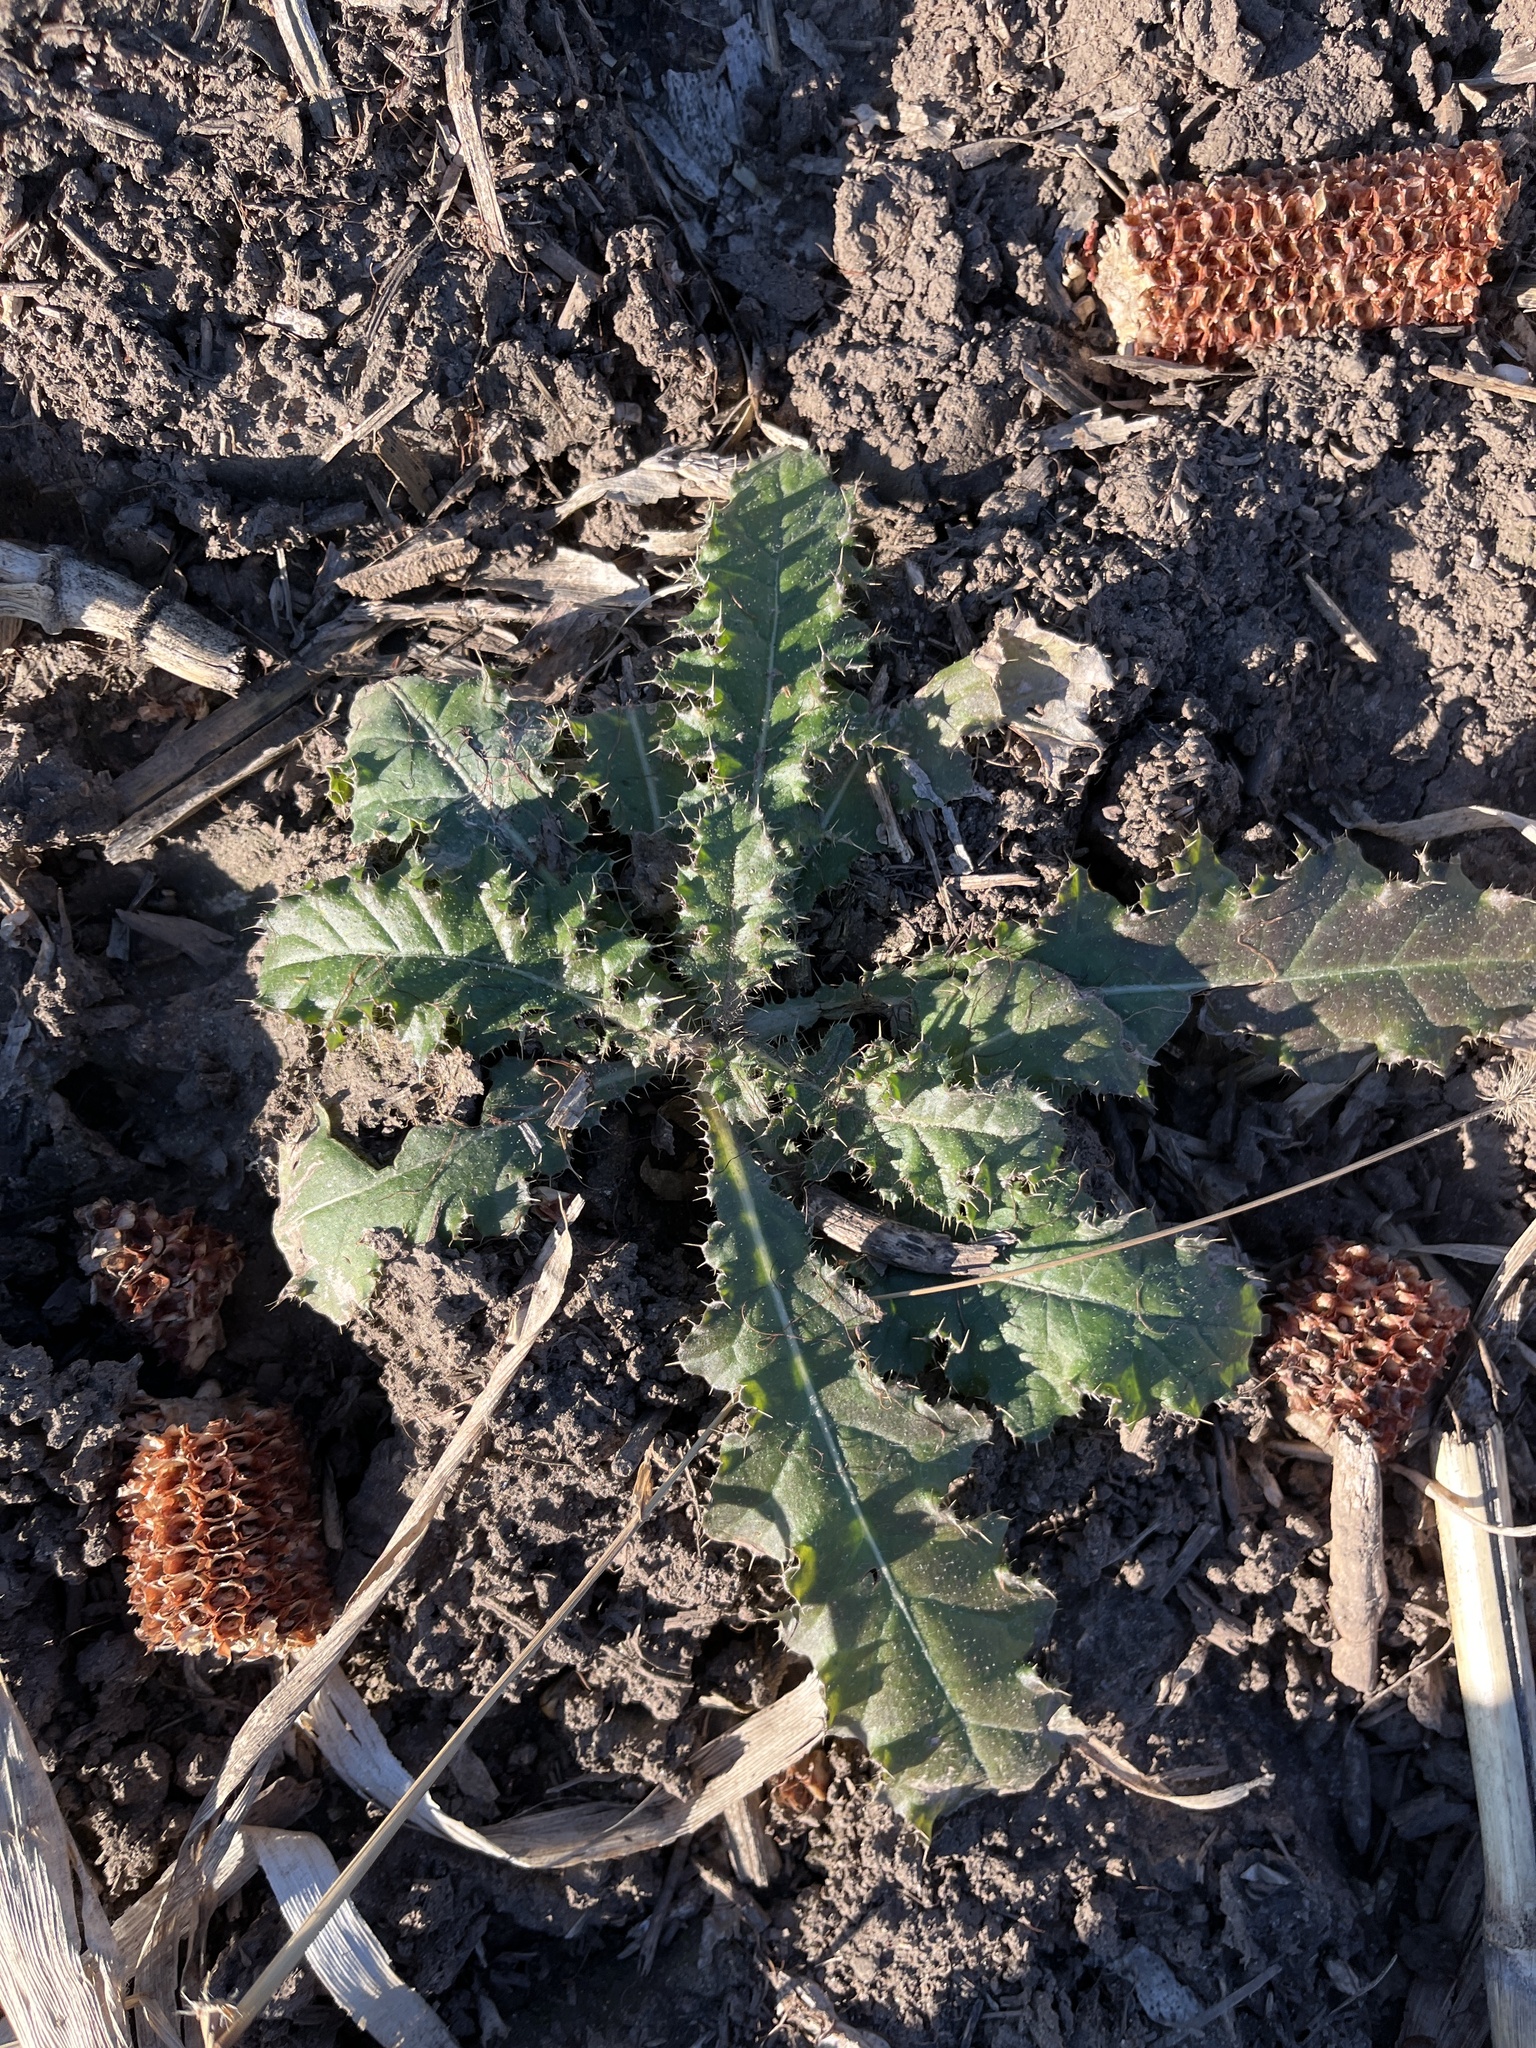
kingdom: Plantae
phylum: Tracheophyta
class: Magnoliopsida
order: Asterales
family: Asteraceae
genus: Cirsium
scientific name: Cirsium arvense
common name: Creeping thistle
